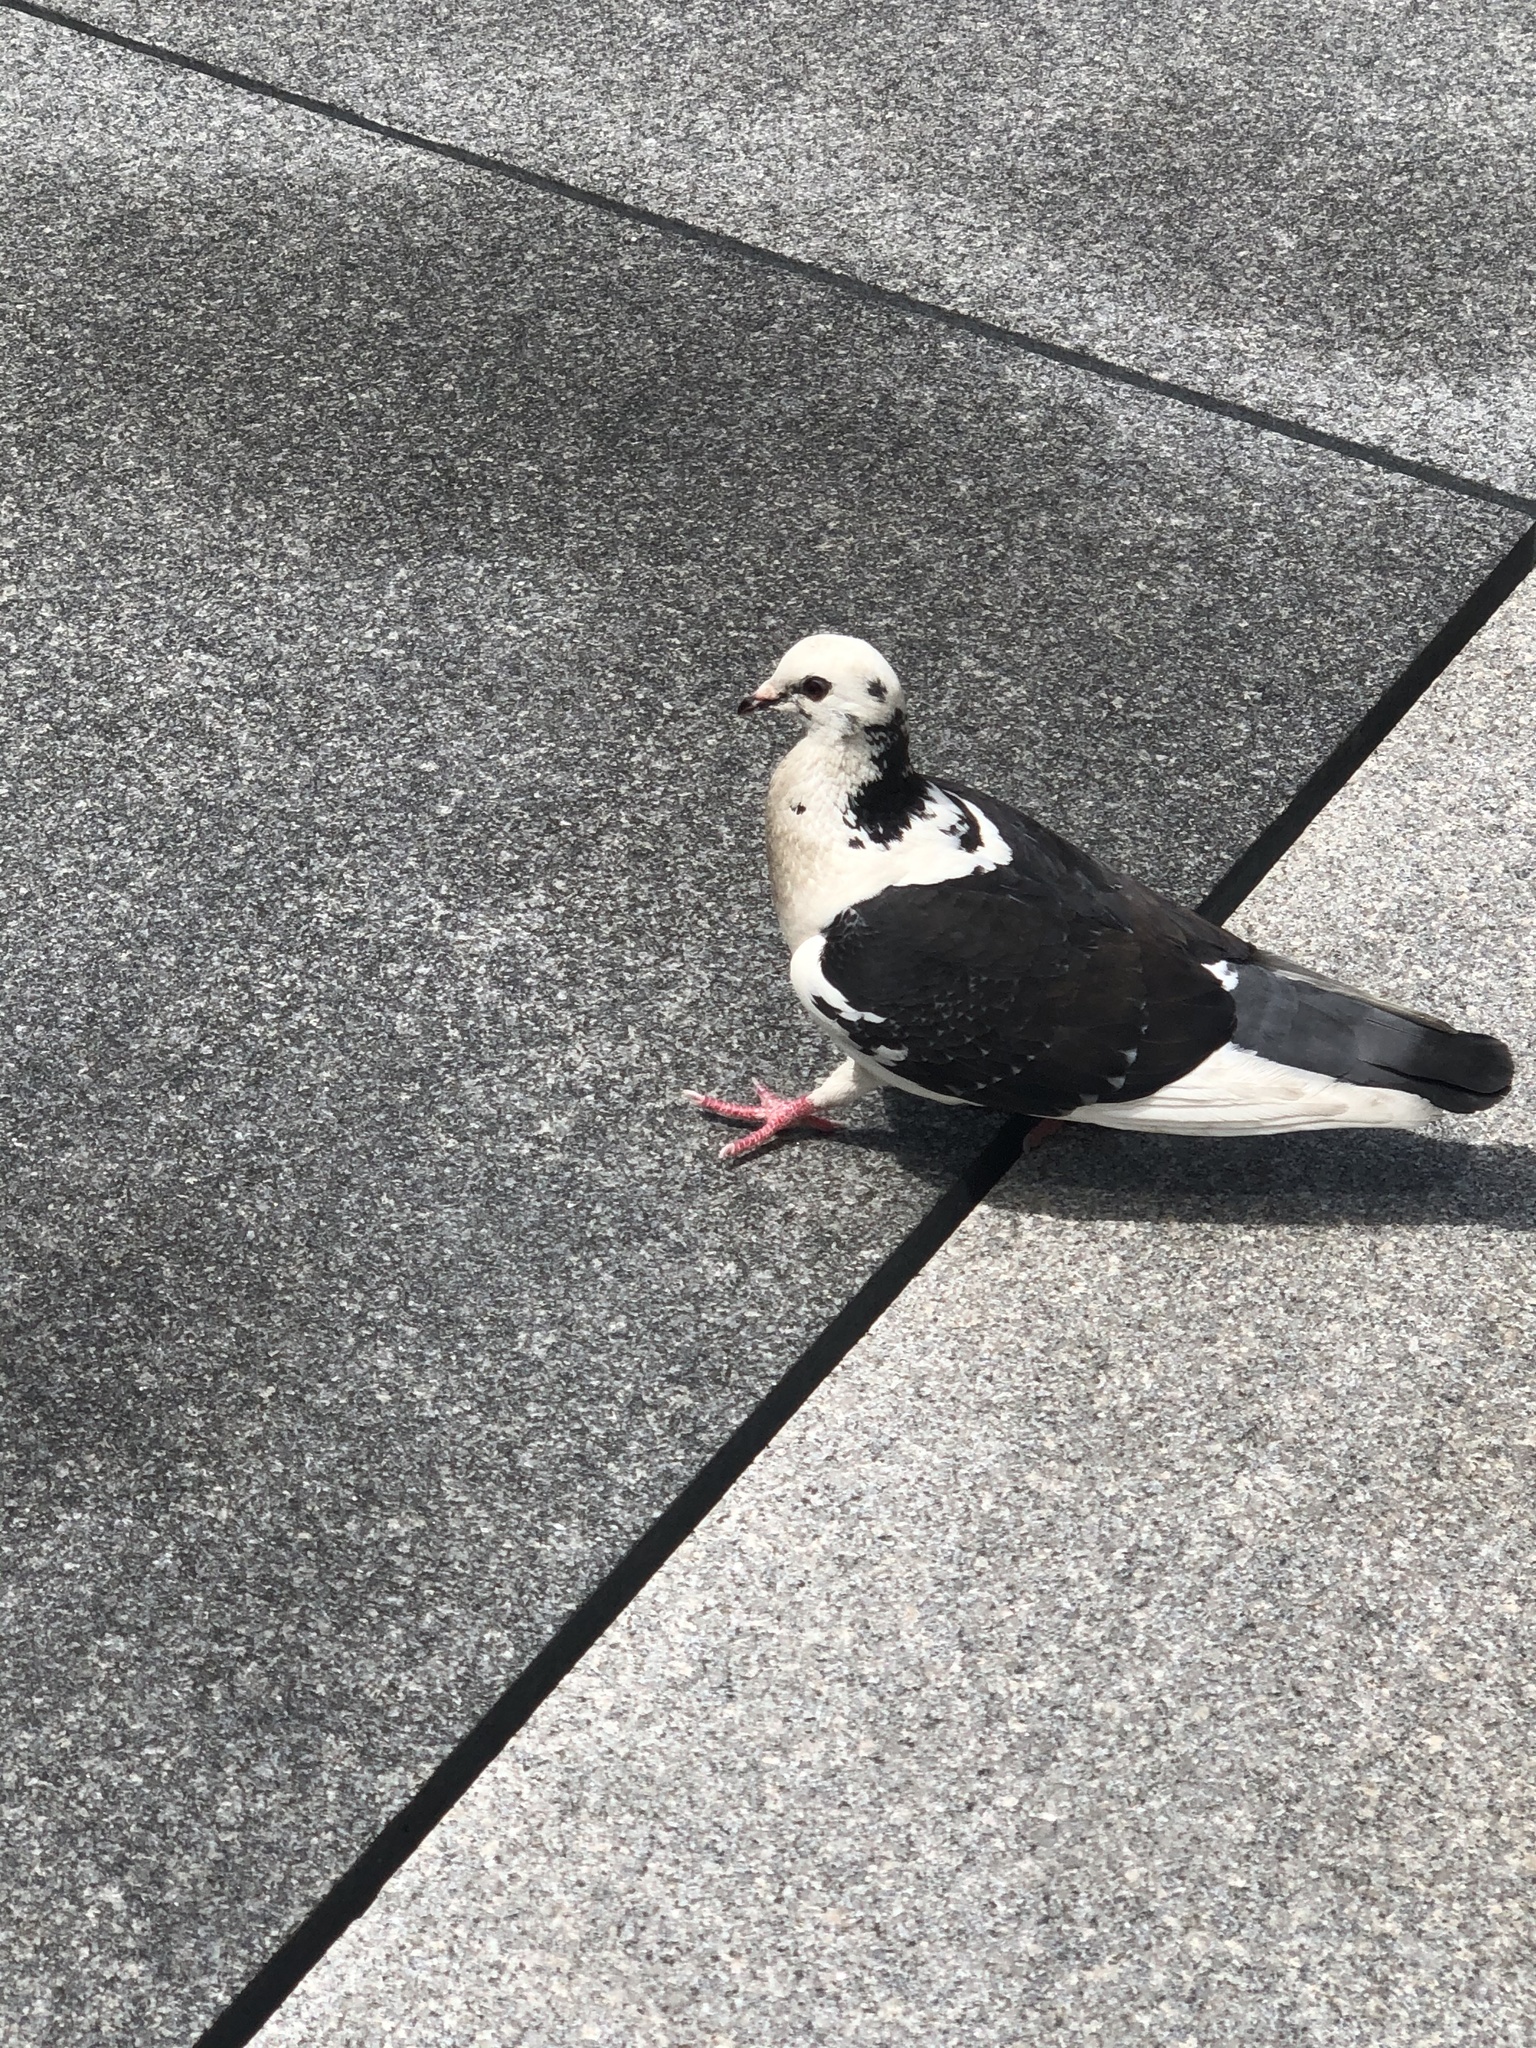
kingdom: Animalia
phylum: Chordata
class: Aves
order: Columbiformes
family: Columbidae
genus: Columba
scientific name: Columba livia
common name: Rock pigeon
